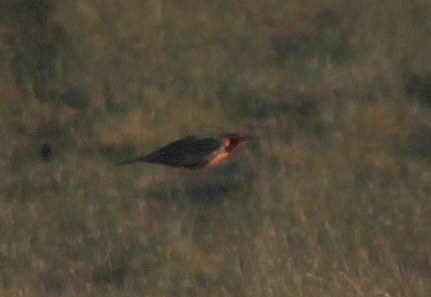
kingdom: Animalia
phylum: Chordata
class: Aves
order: Passeriformes
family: Icteridae
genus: Sturnella
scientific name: Sturnella loyca
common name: Long-tailed meadowlark
